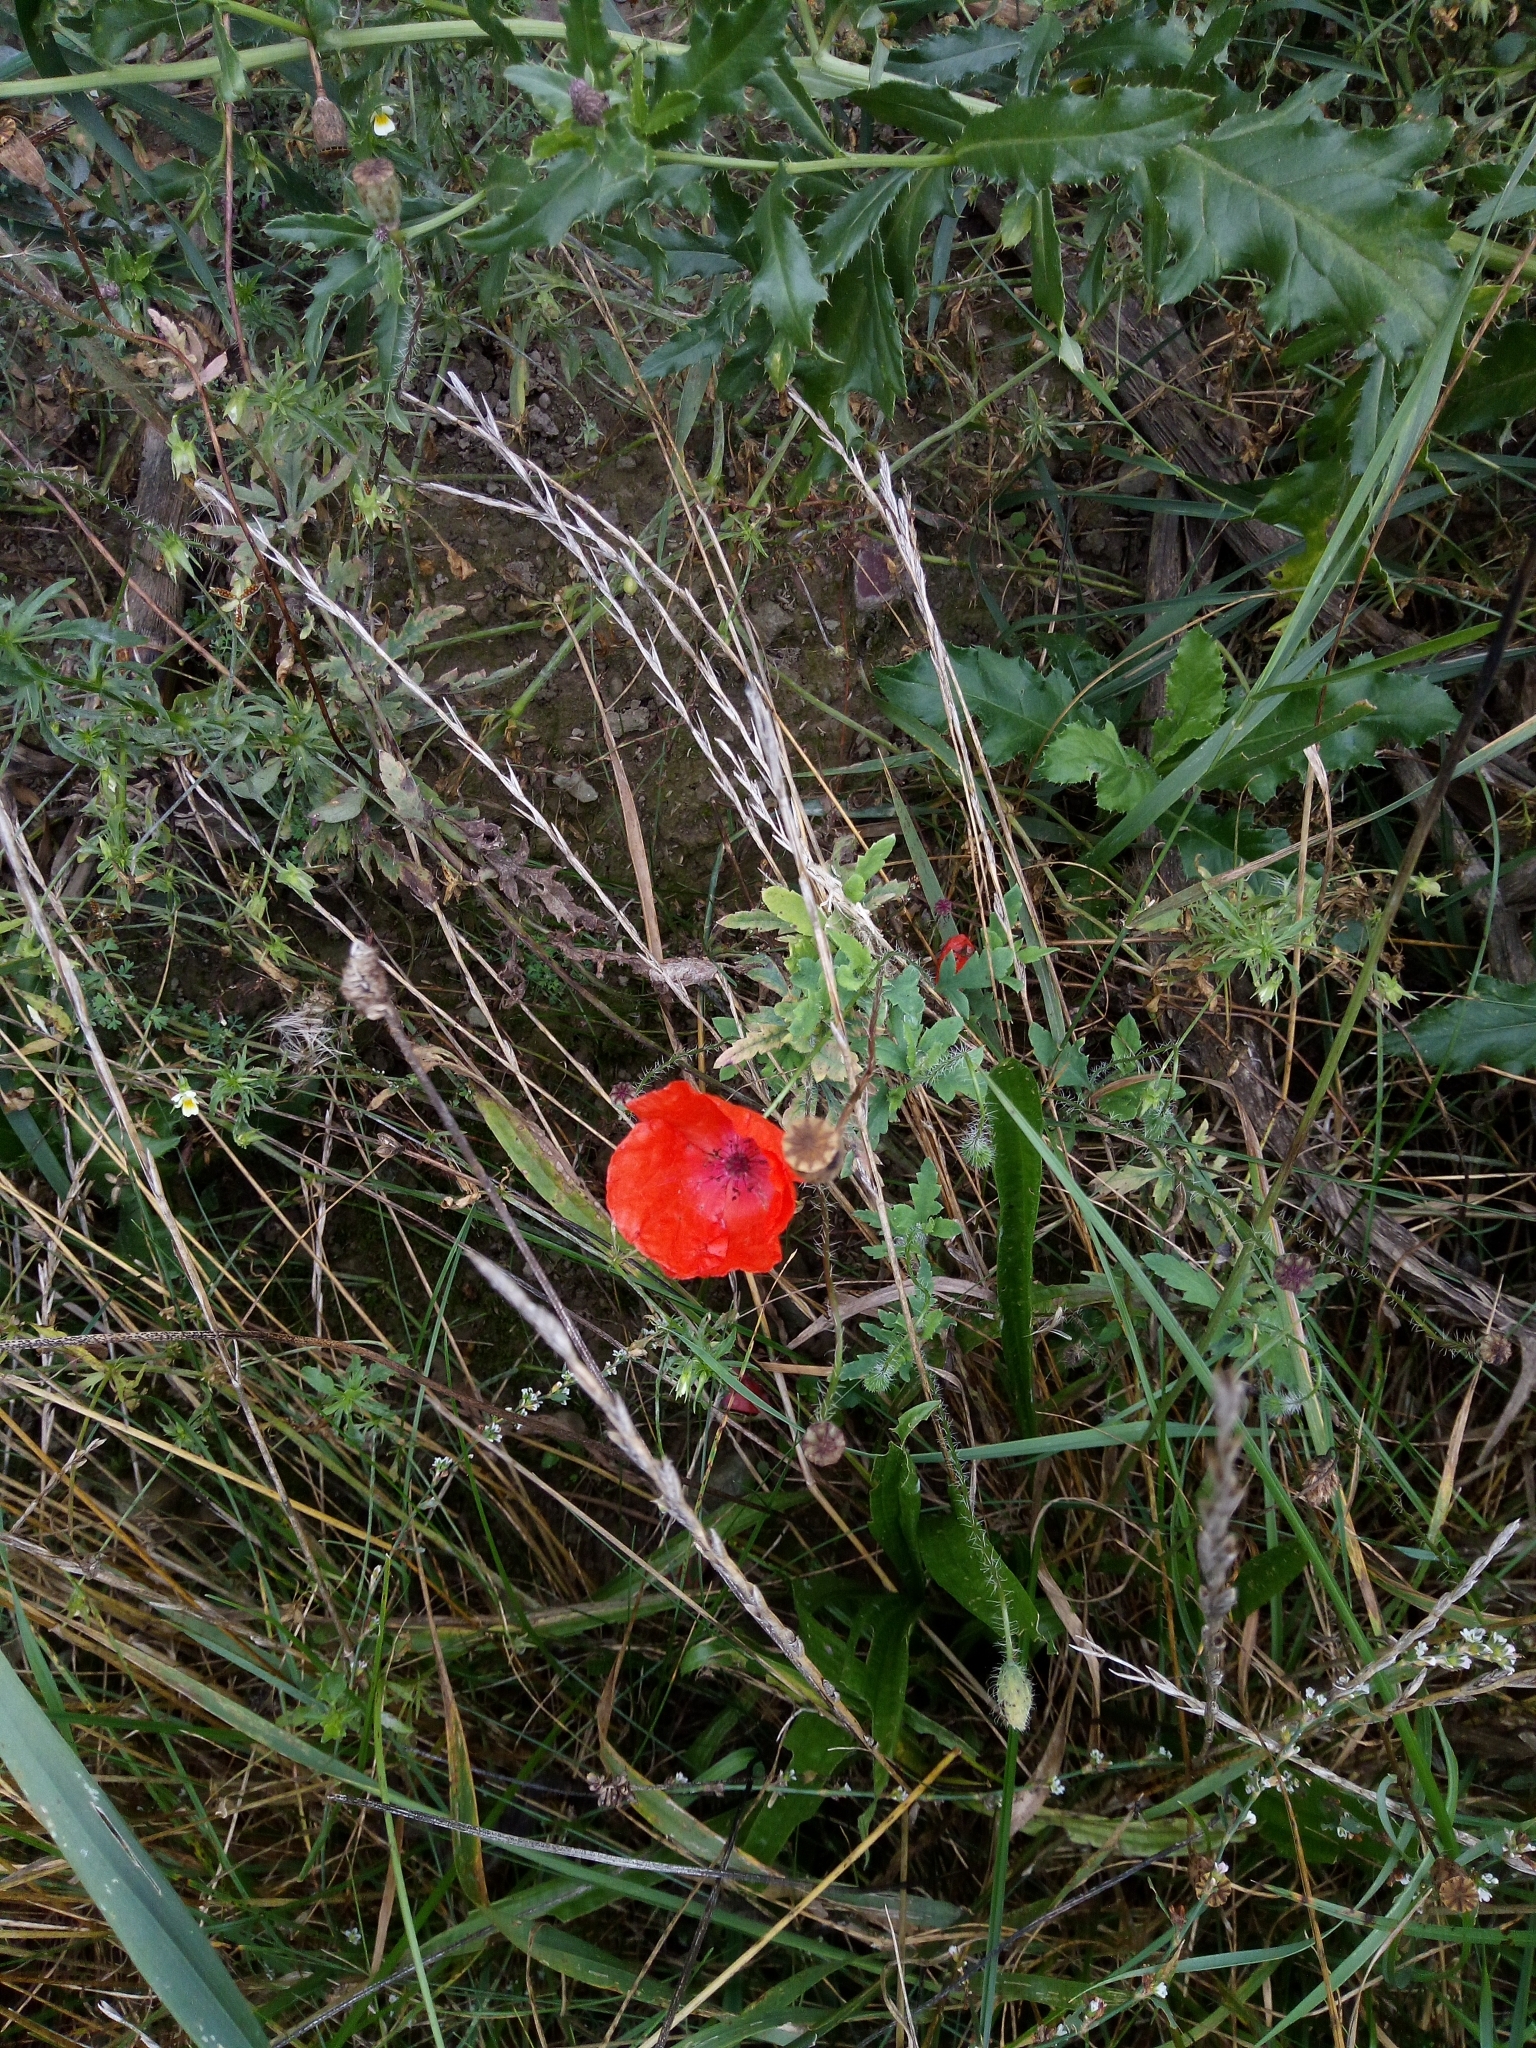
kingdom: Plantae
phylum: Tracheophyta
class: Magnoliopsida
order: Ranunculales
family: Papaveraceae
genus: Papaver
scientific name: Papaver rhoeas
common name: Corn poppy
